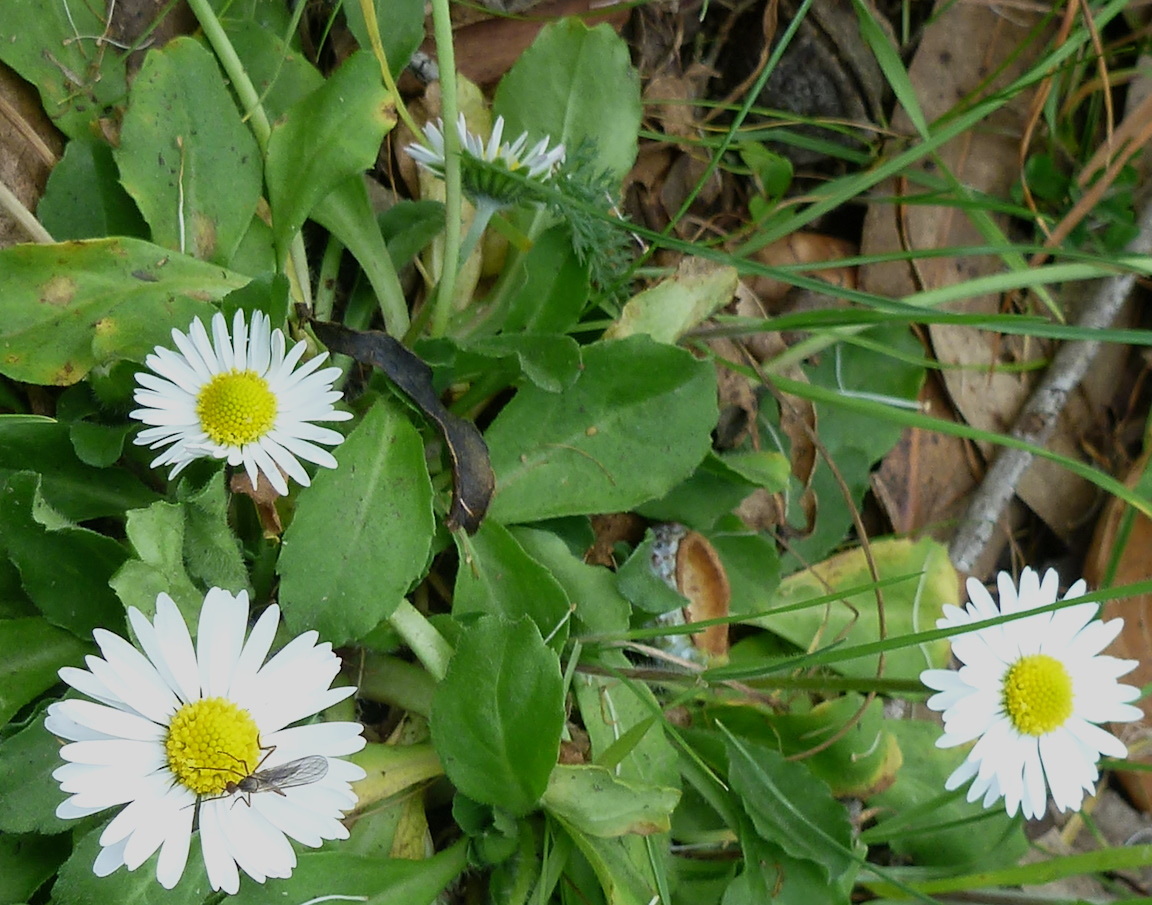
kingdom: Plantae
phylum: Tracheophyta
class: Magnoliopsida
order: Asterales
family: Asteraceae
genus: Bellis
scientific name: Bellis perennis
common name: Lawndaisy
